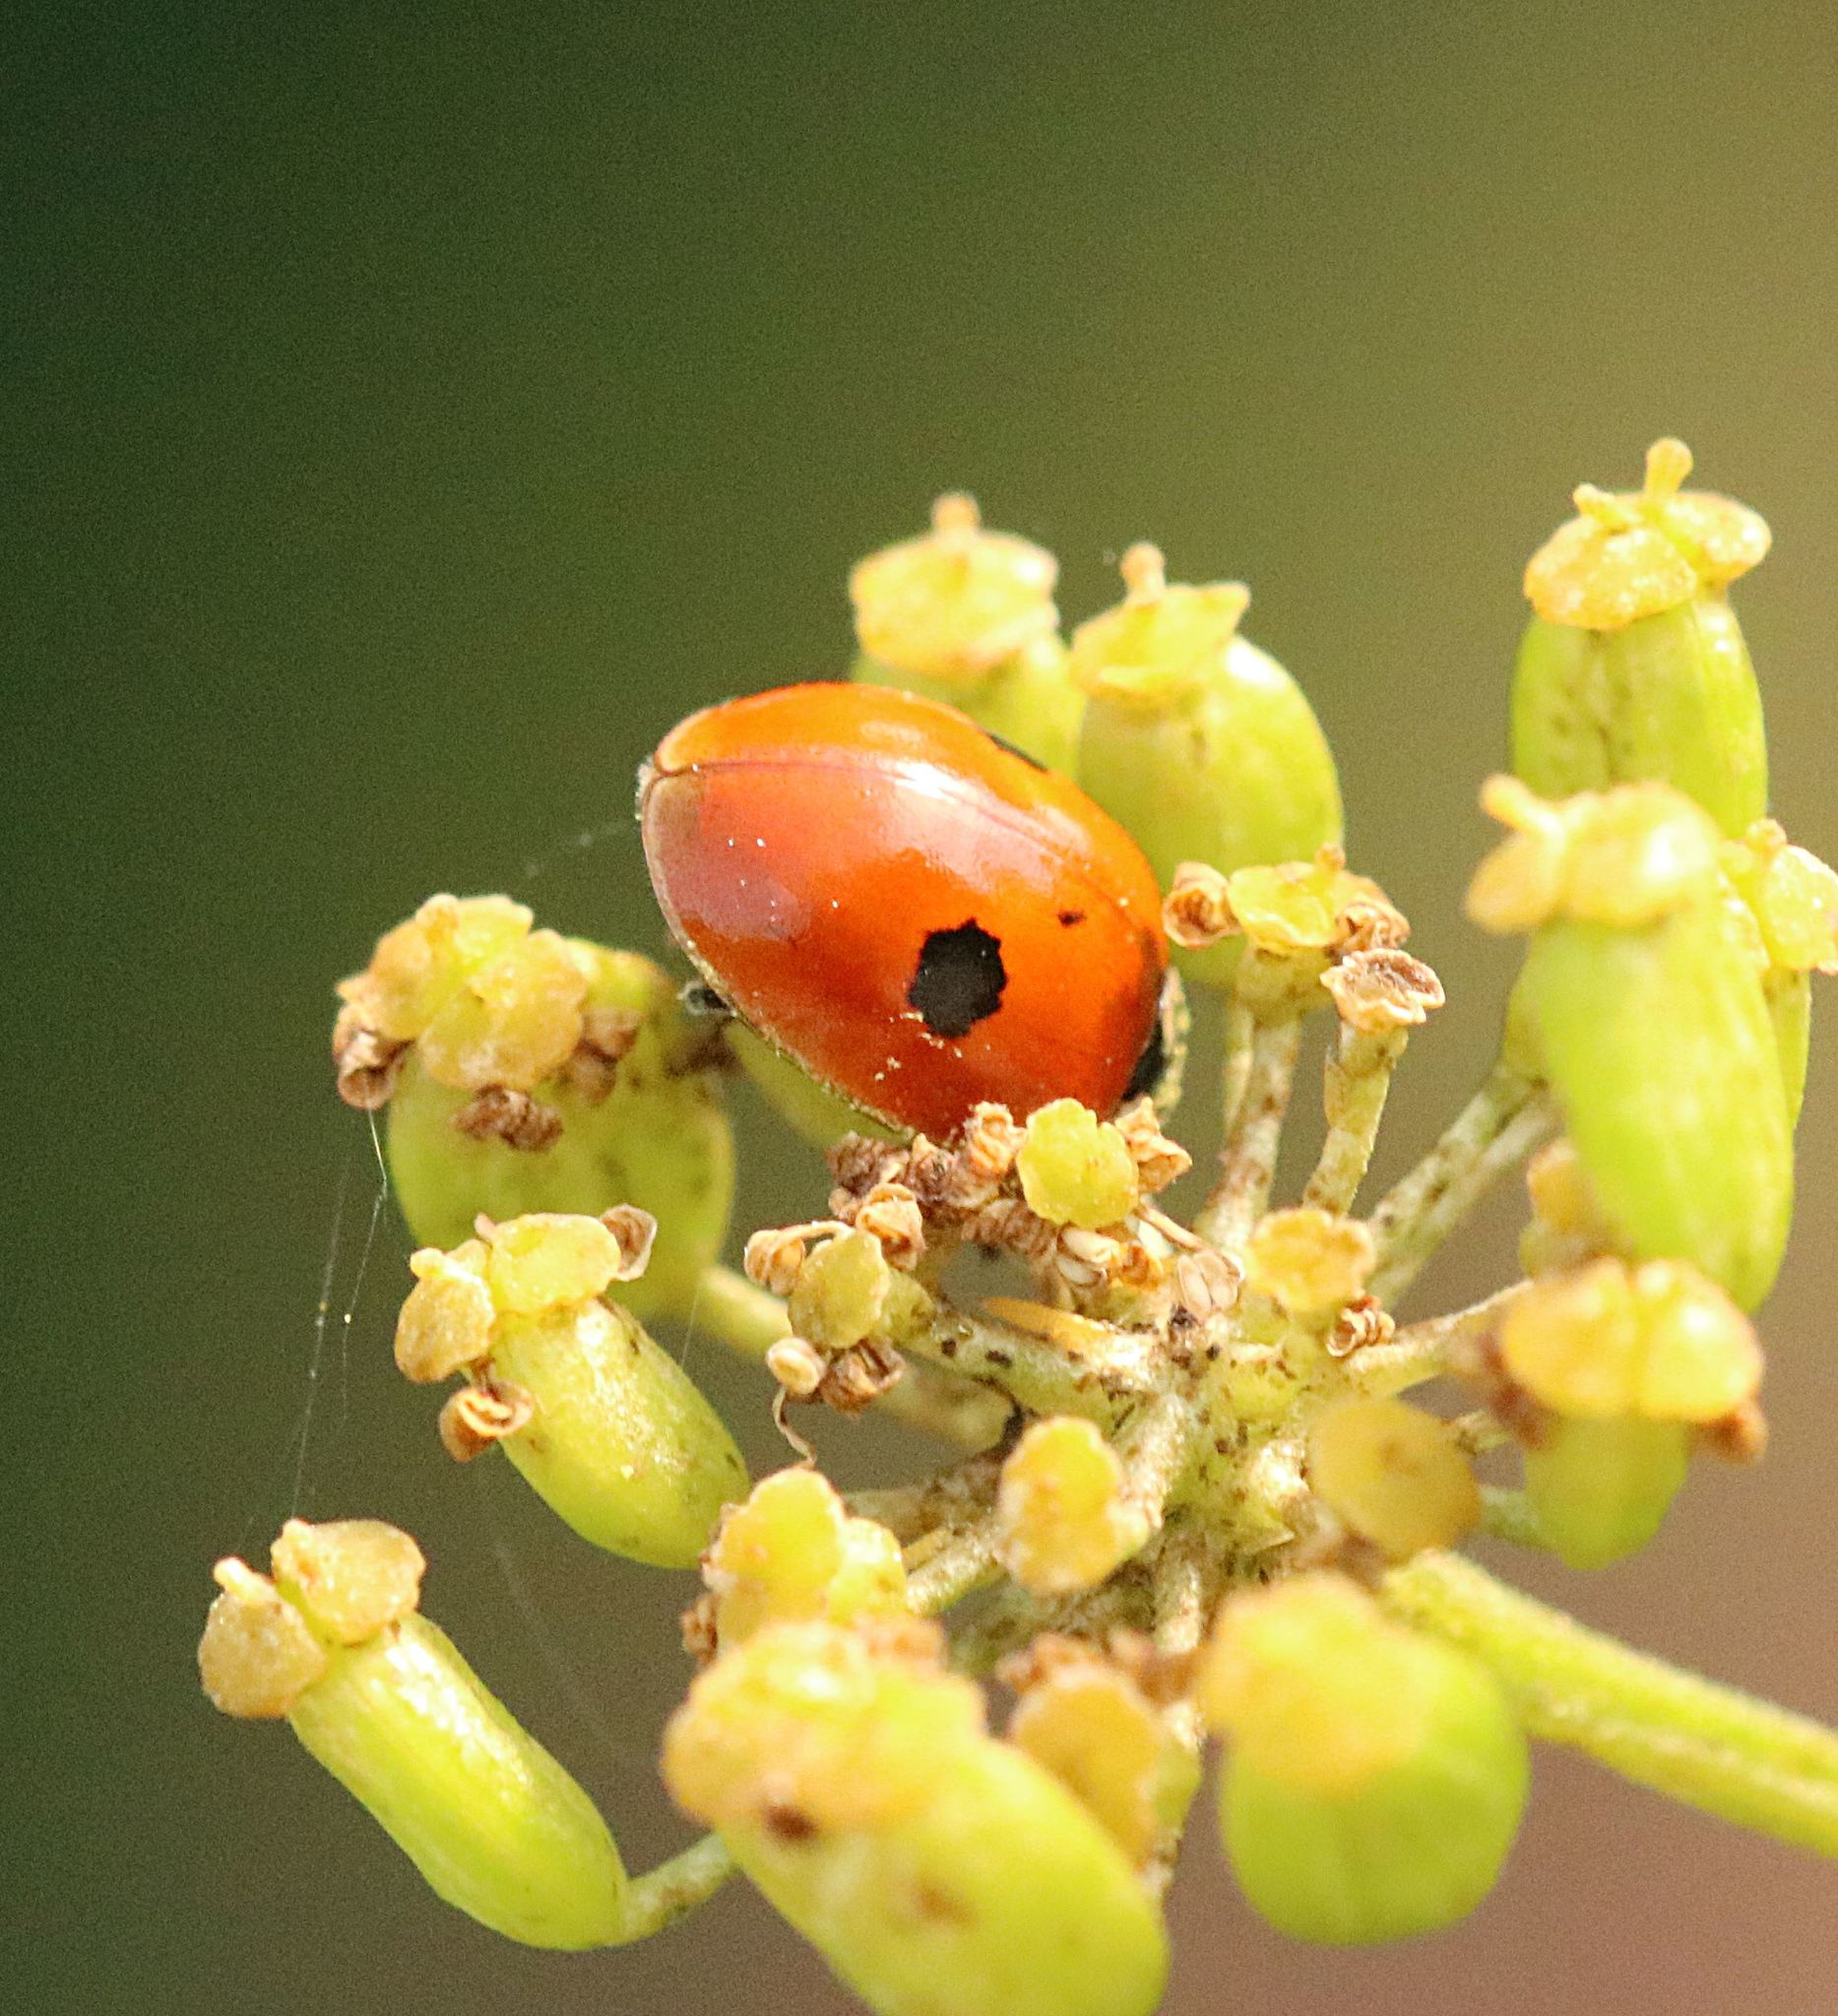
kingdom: Animalia
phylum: Arthropoda
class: Insecta
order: Coleoptera
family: Coccinellidae
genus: Adalia
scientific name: Adalia bipunctata
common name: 2-spot ladybird
